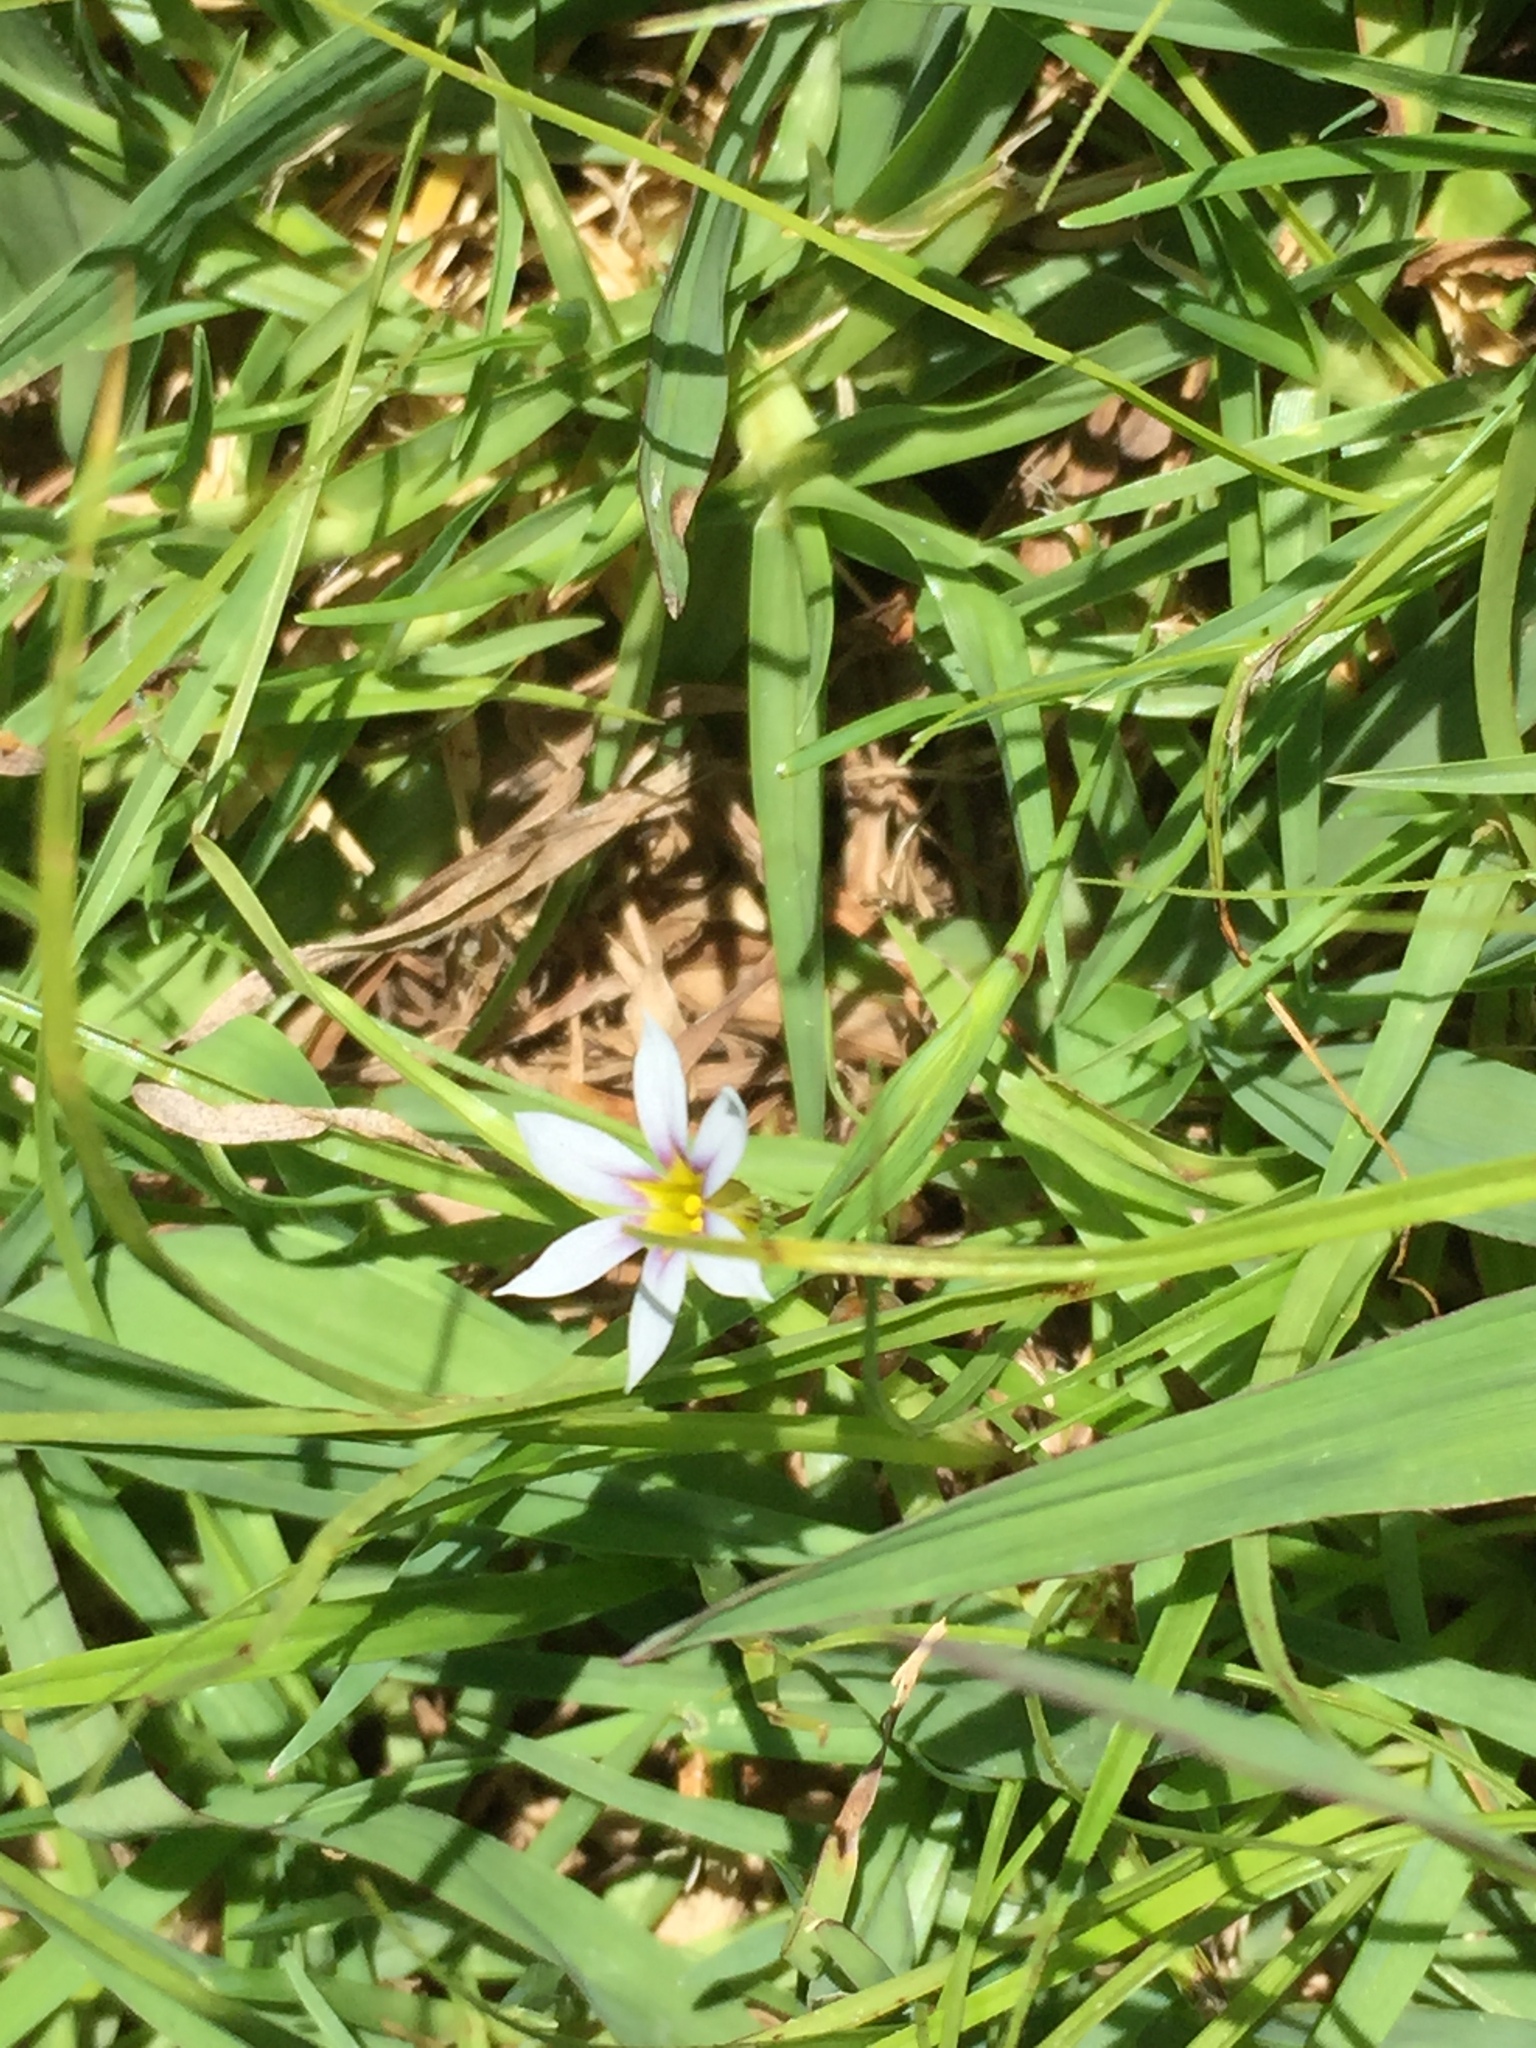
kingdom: Plantae
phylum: Tracheophyta
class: Liliopsida
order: Asparagales
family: Iridaceae
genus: Sisyrinchium
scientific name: Sisyrinchium micranthum
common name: Bermuda pigroot
